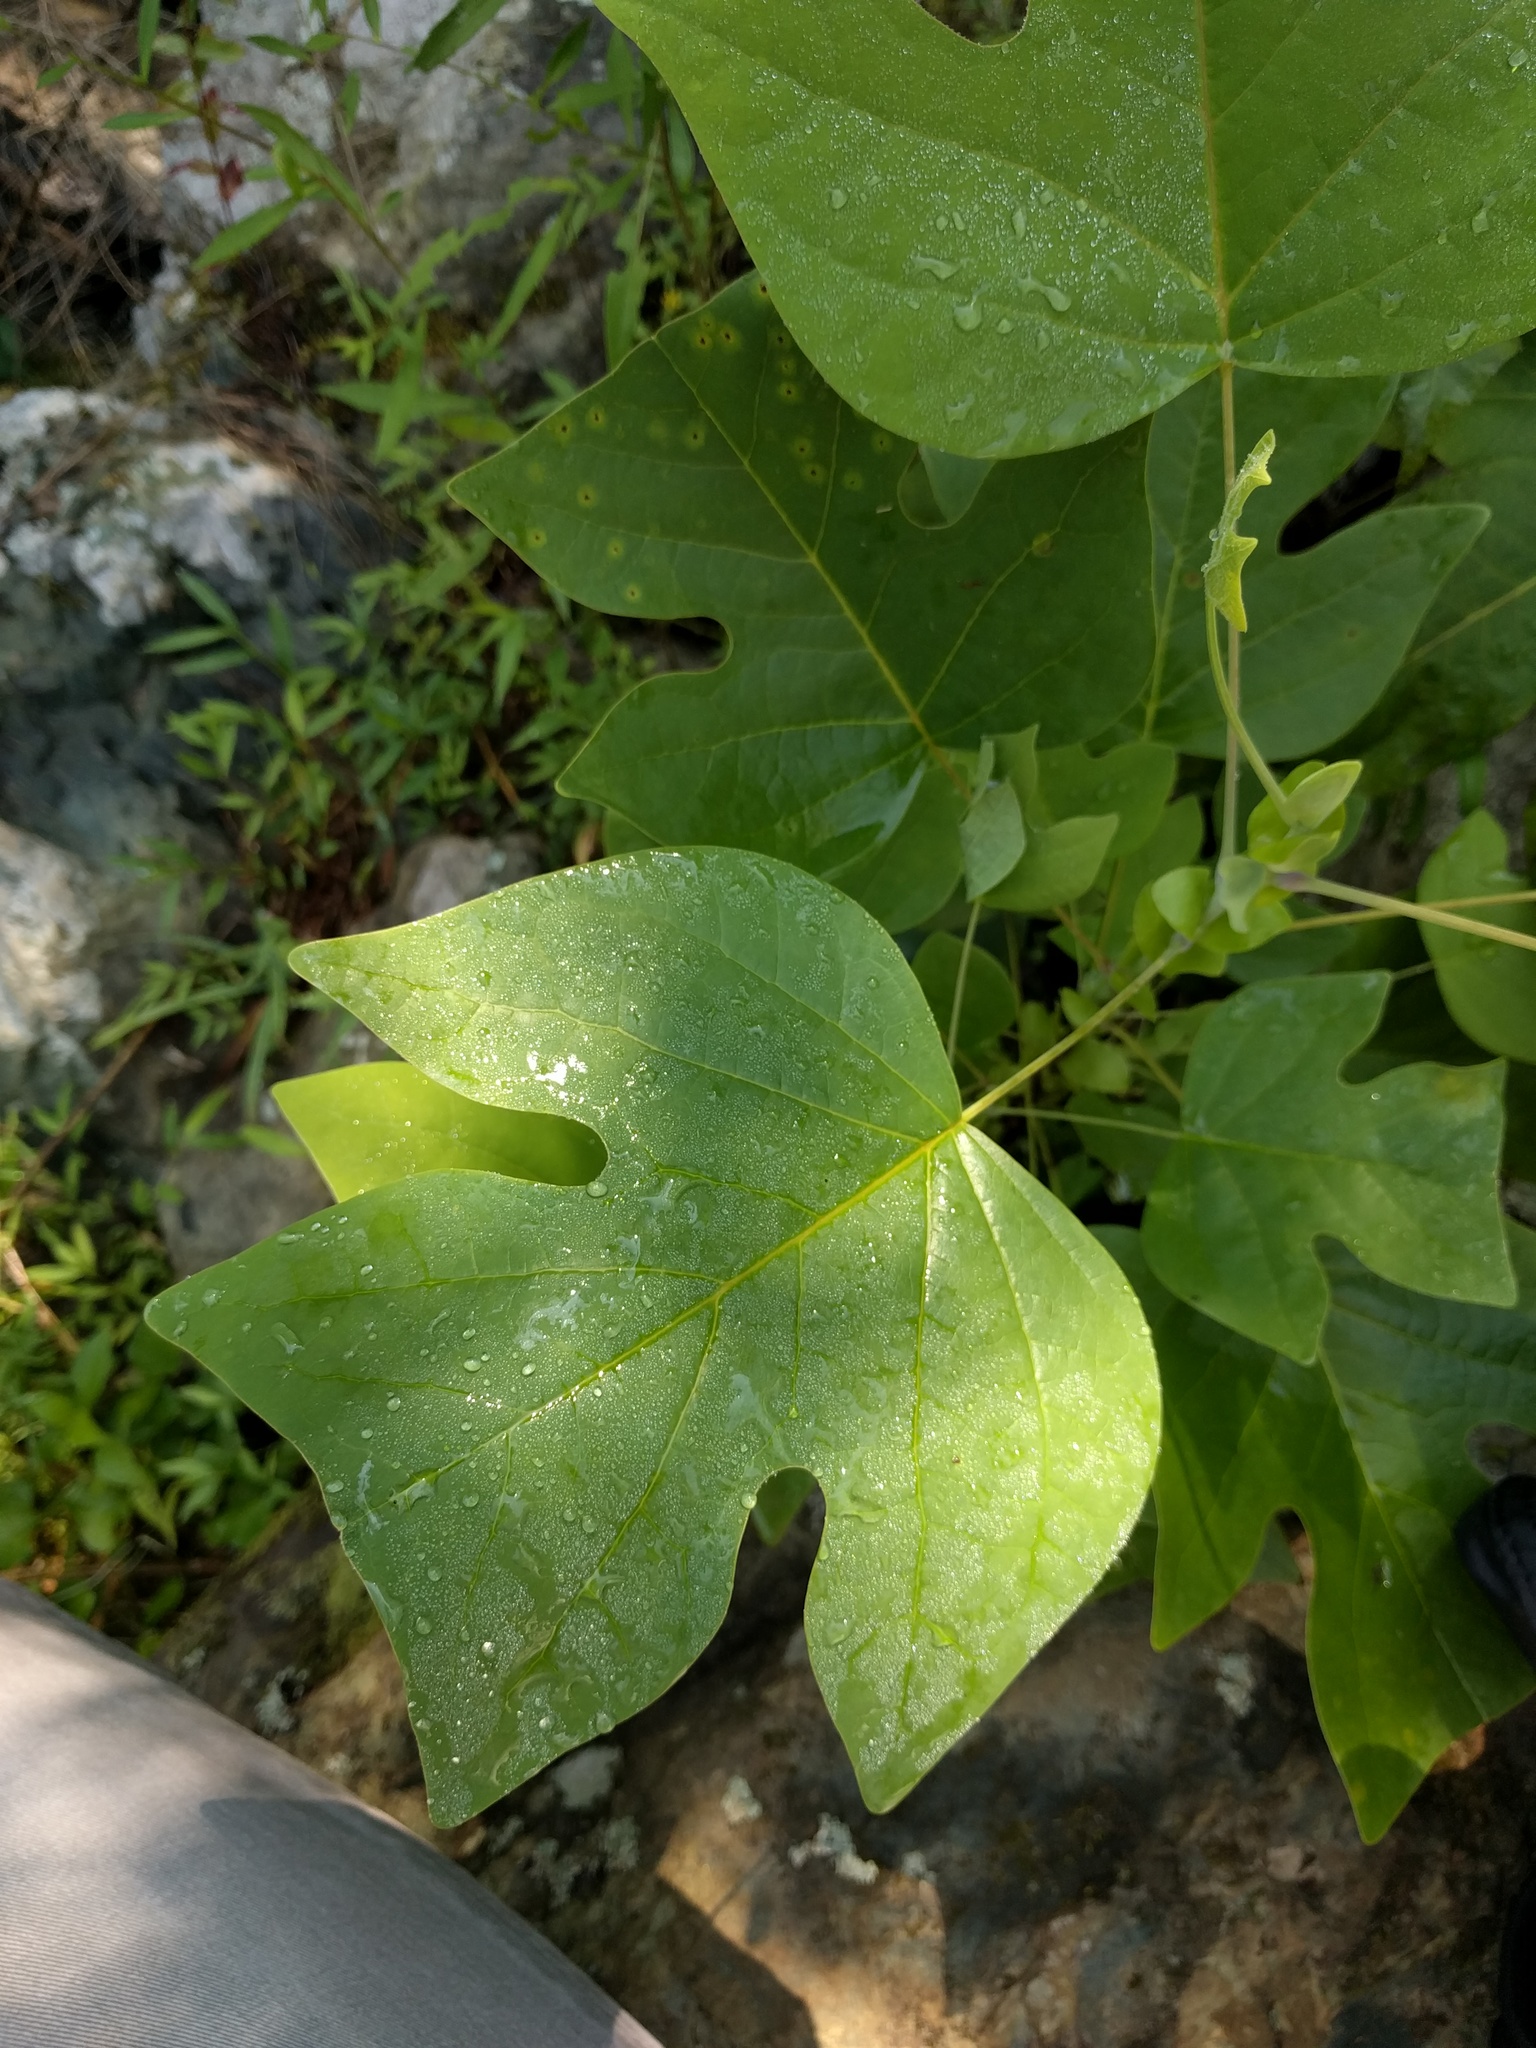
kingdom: Plantae
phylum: Tracheophyta
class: Magnoliopsida
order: Magnoliales
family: Magnoliaceae
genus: Liriodendron
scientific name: Liriodendron tulipifera
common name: Tulip tree
